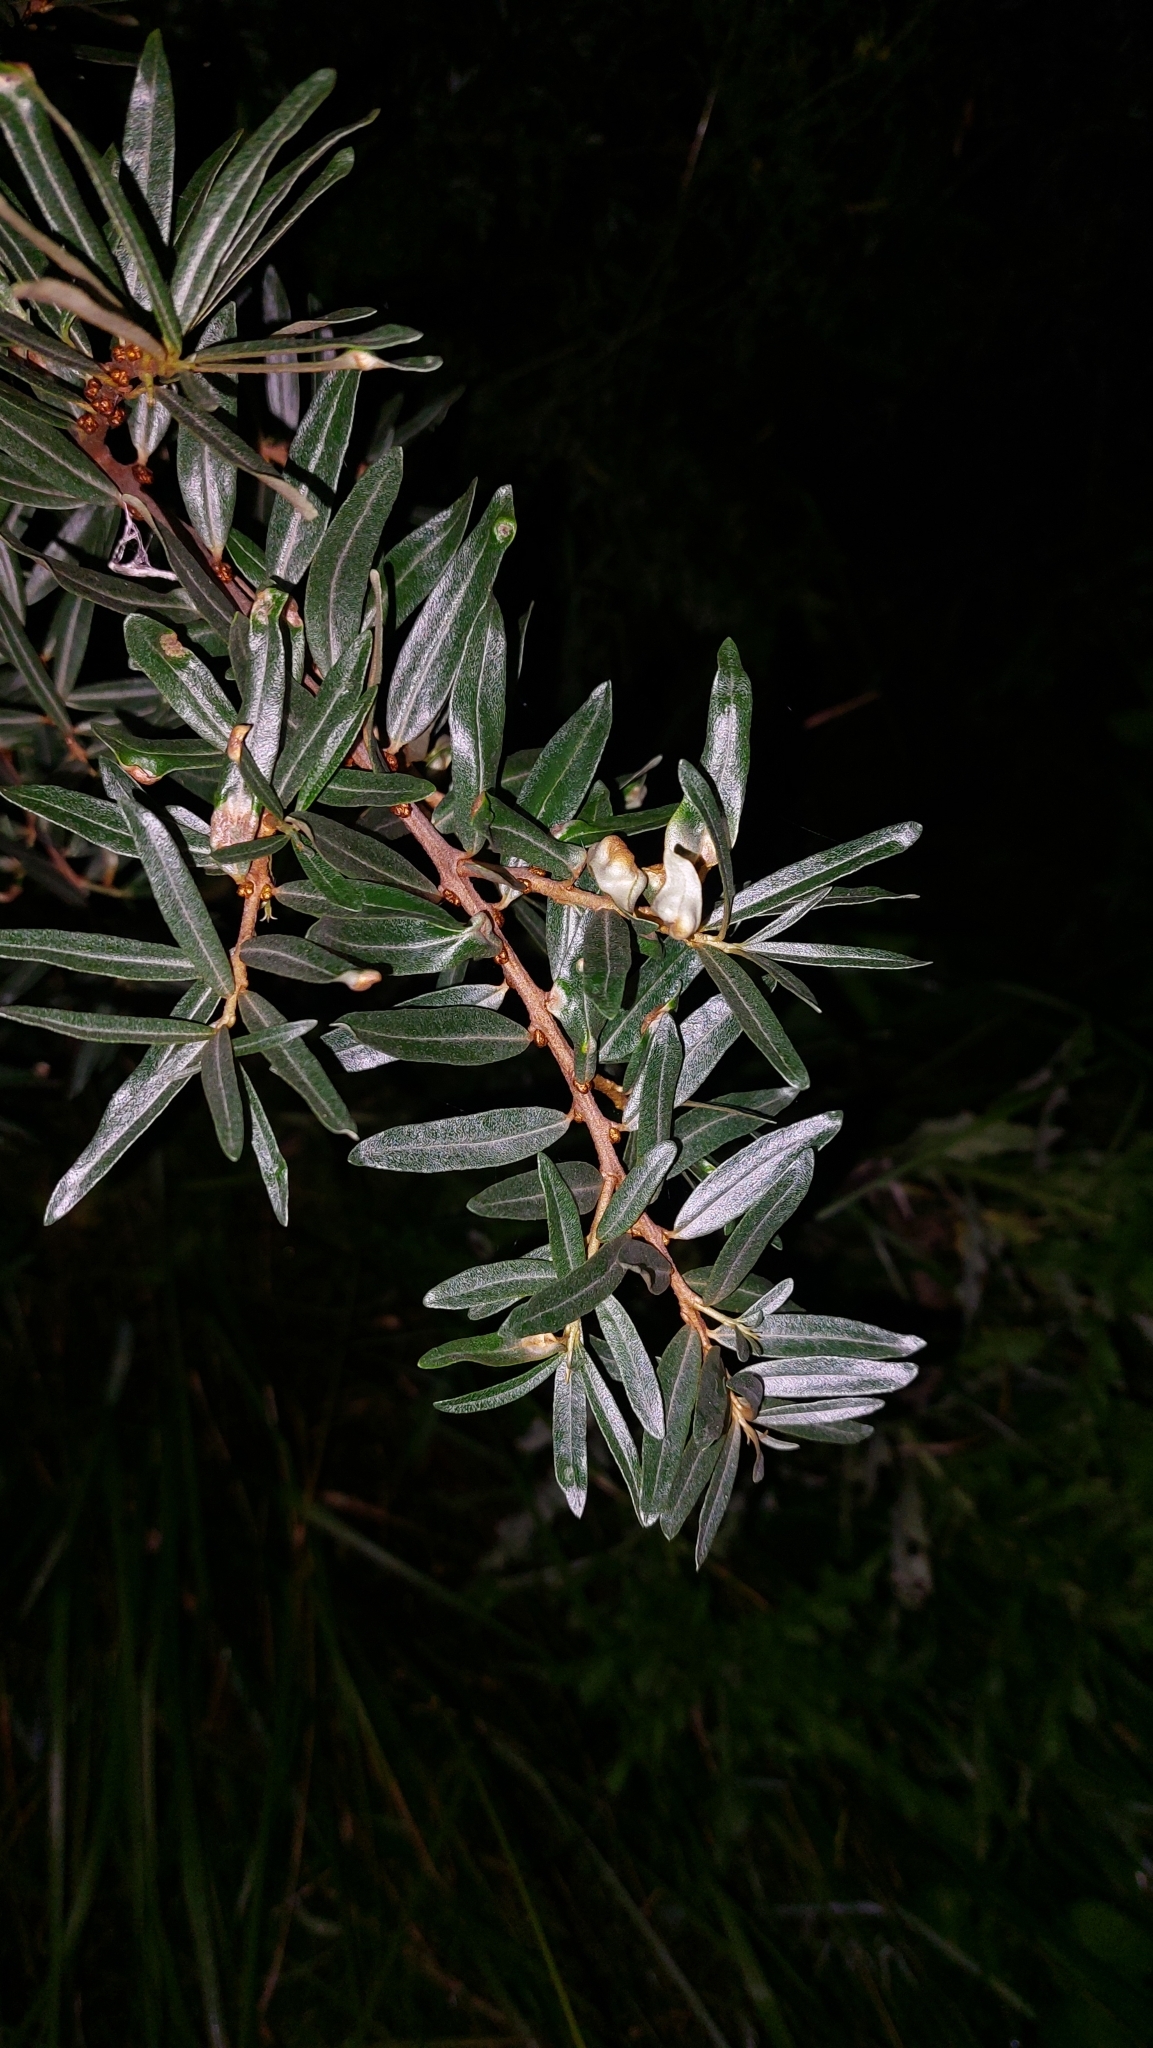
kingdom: Plantae
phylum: Tracheophyta
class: Magnoliopsida
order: Rosales
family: Elaeagnaceae
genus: Hippophae
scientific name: Hippophae rhamnoides
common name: Sea-buckthorn
